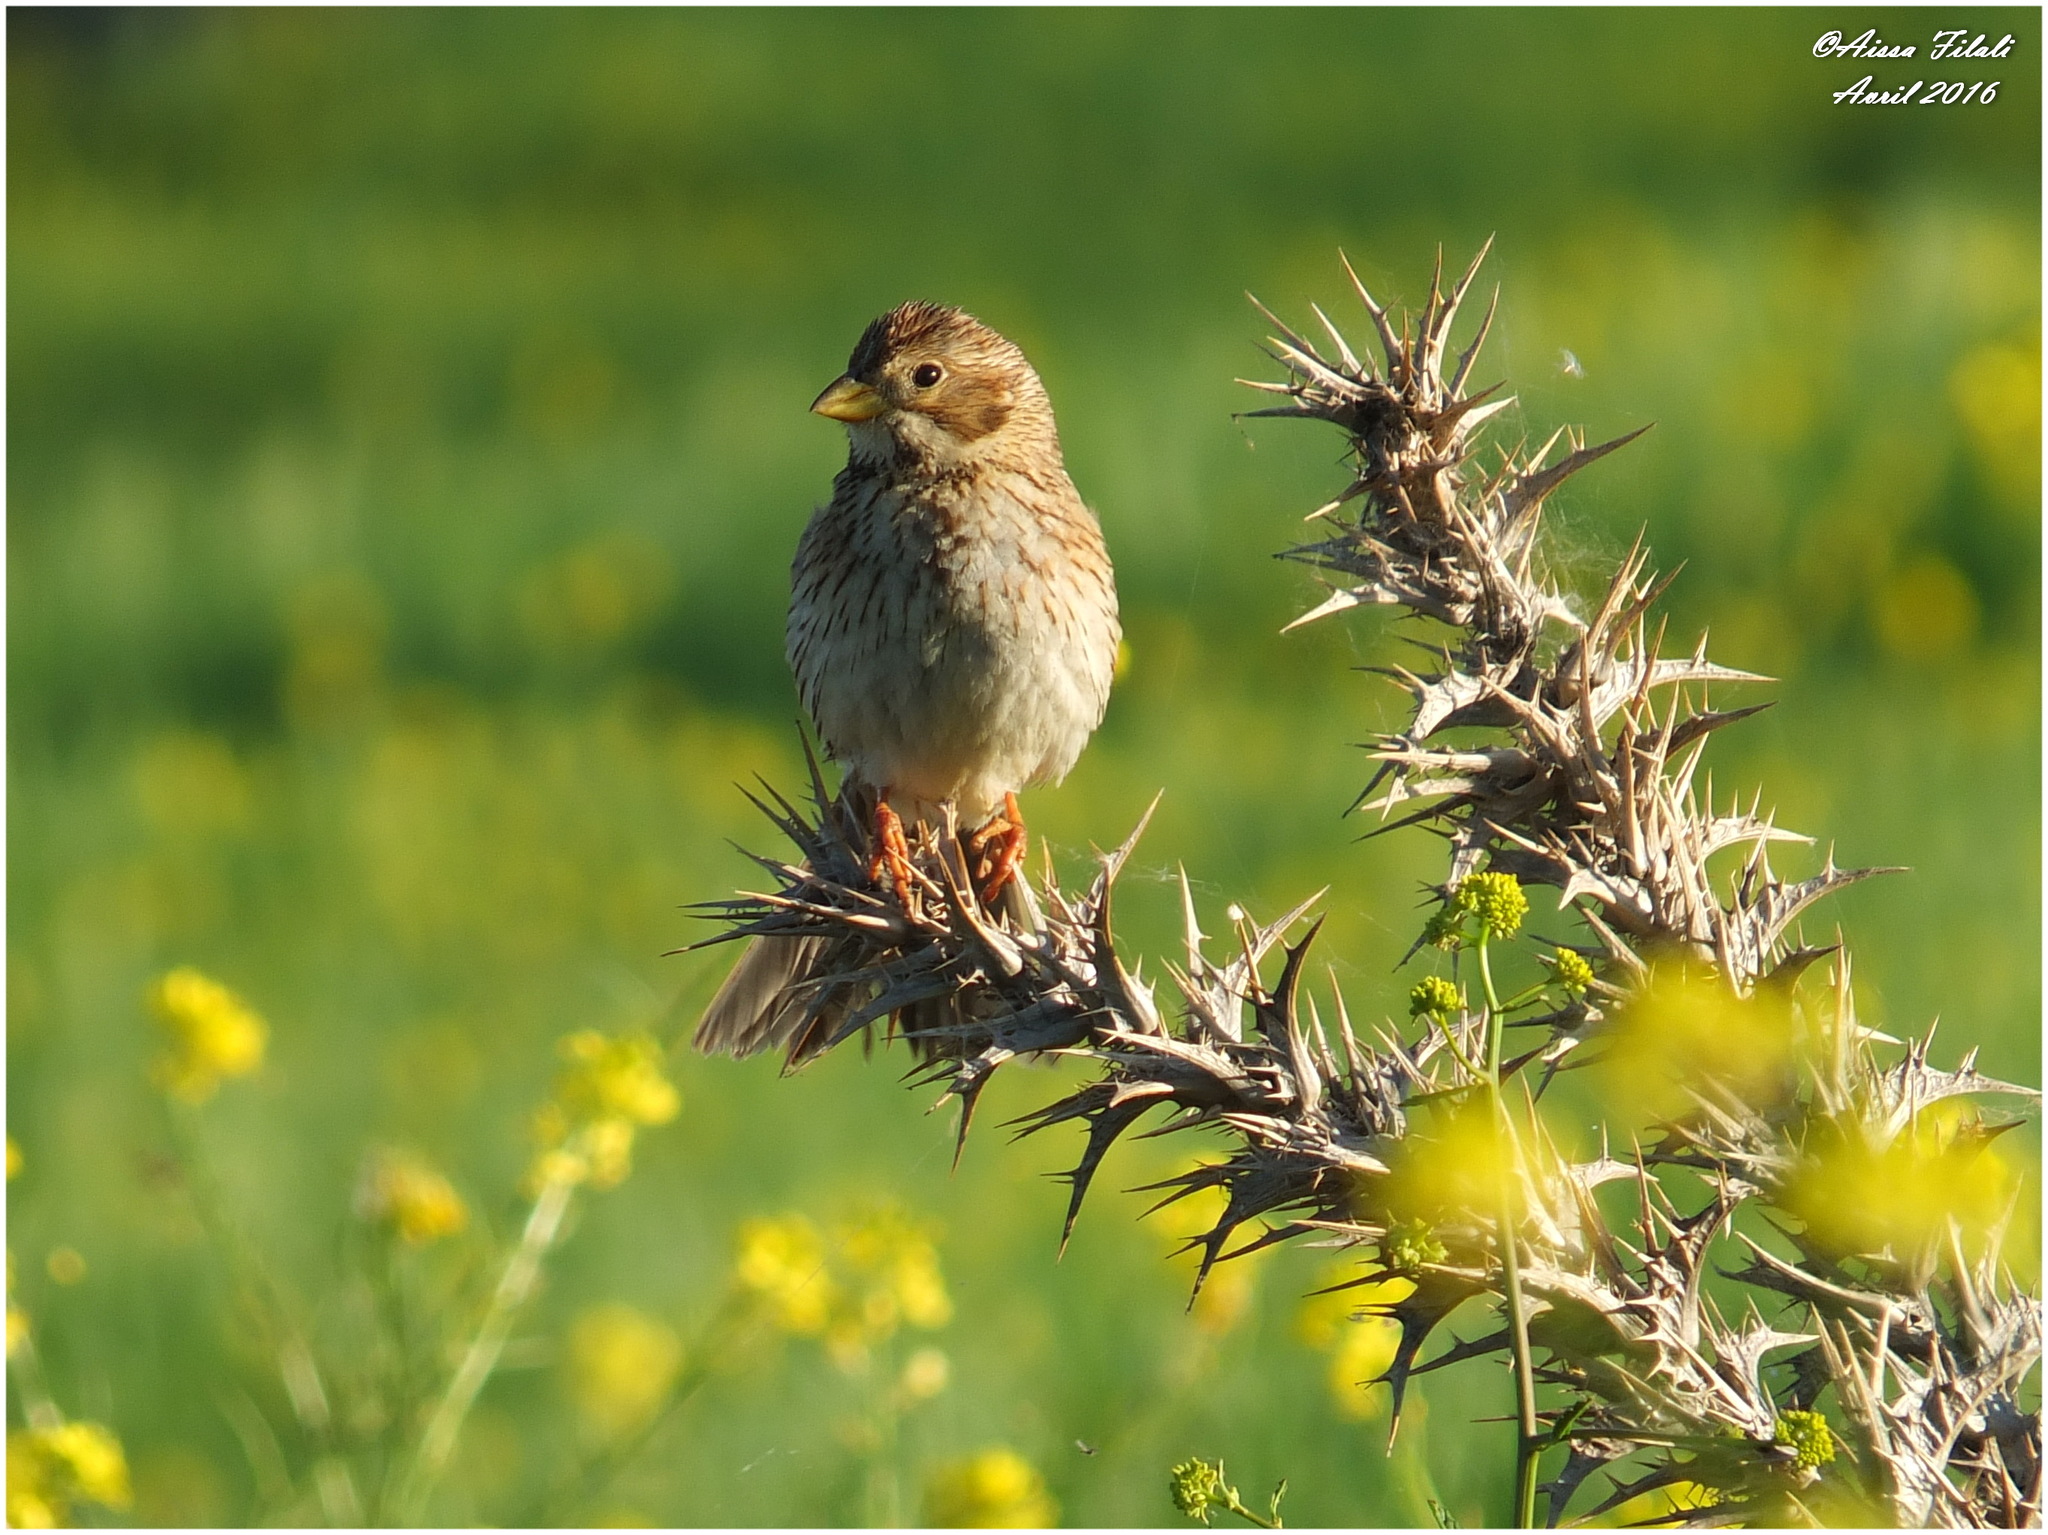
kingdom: Animalia
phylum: Chordata
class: Aves
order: Passeriformes
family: Emberizidae
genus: Emberiza
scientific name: Emberiza calandra
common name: Corn bunting
